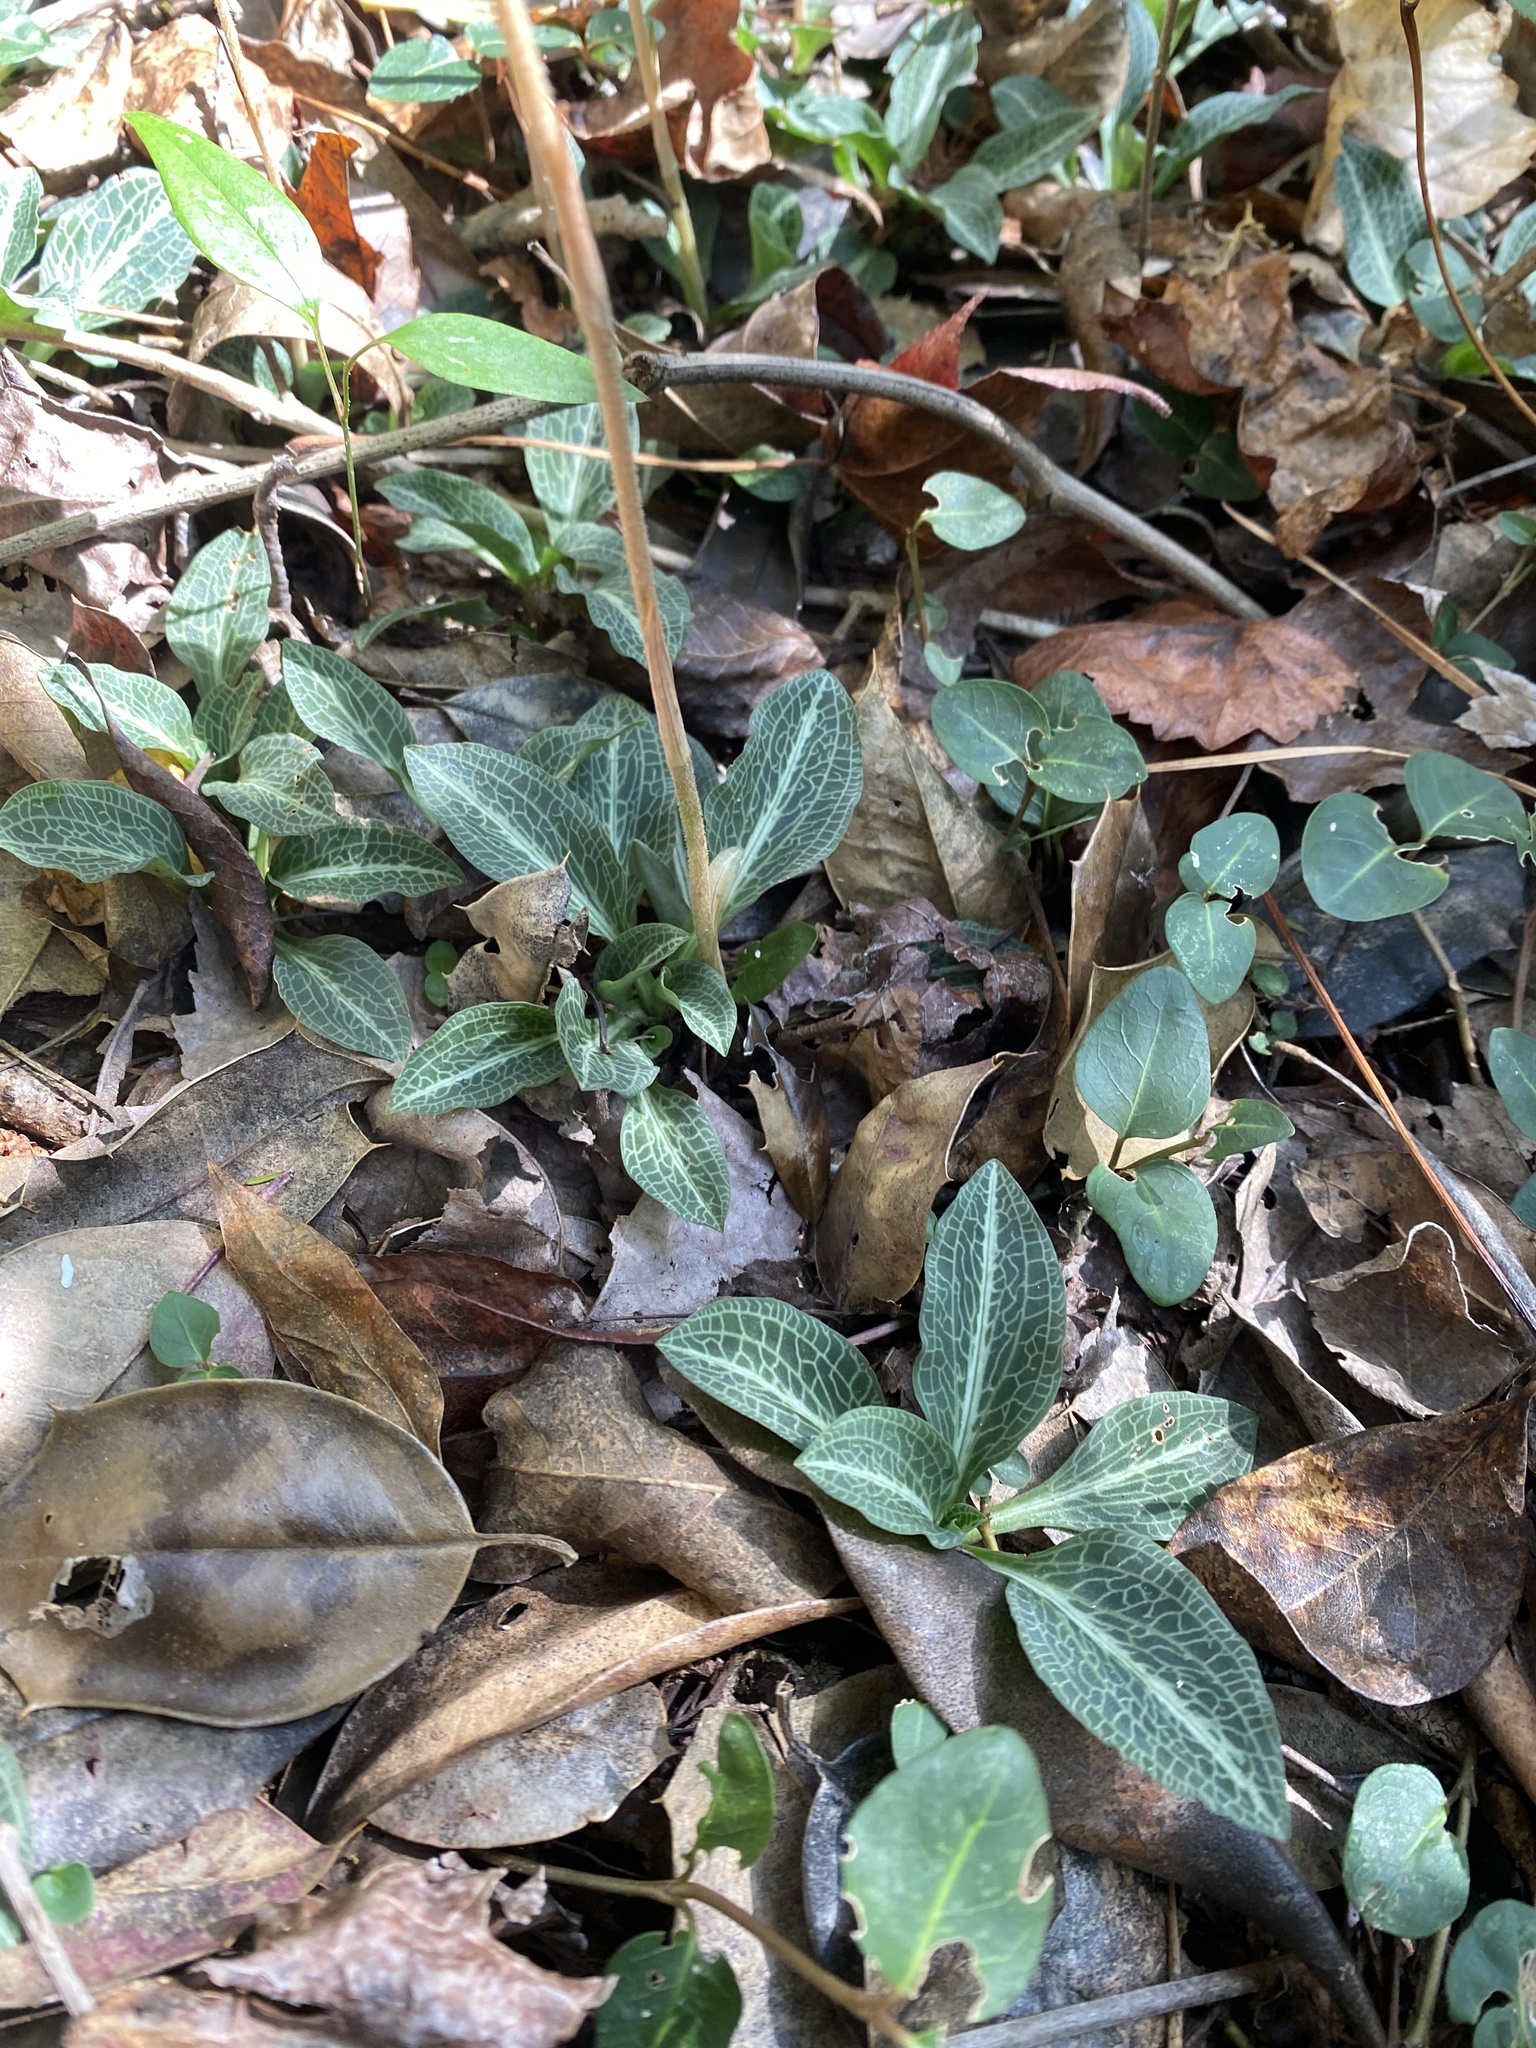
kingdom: Plantae
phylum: Tracheophyta
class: Liliopsida
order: Asparagales
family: Orchidaceae
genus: Goodyera
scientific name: Goodyera pubescens
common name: Downy rattlesnake-plantain
